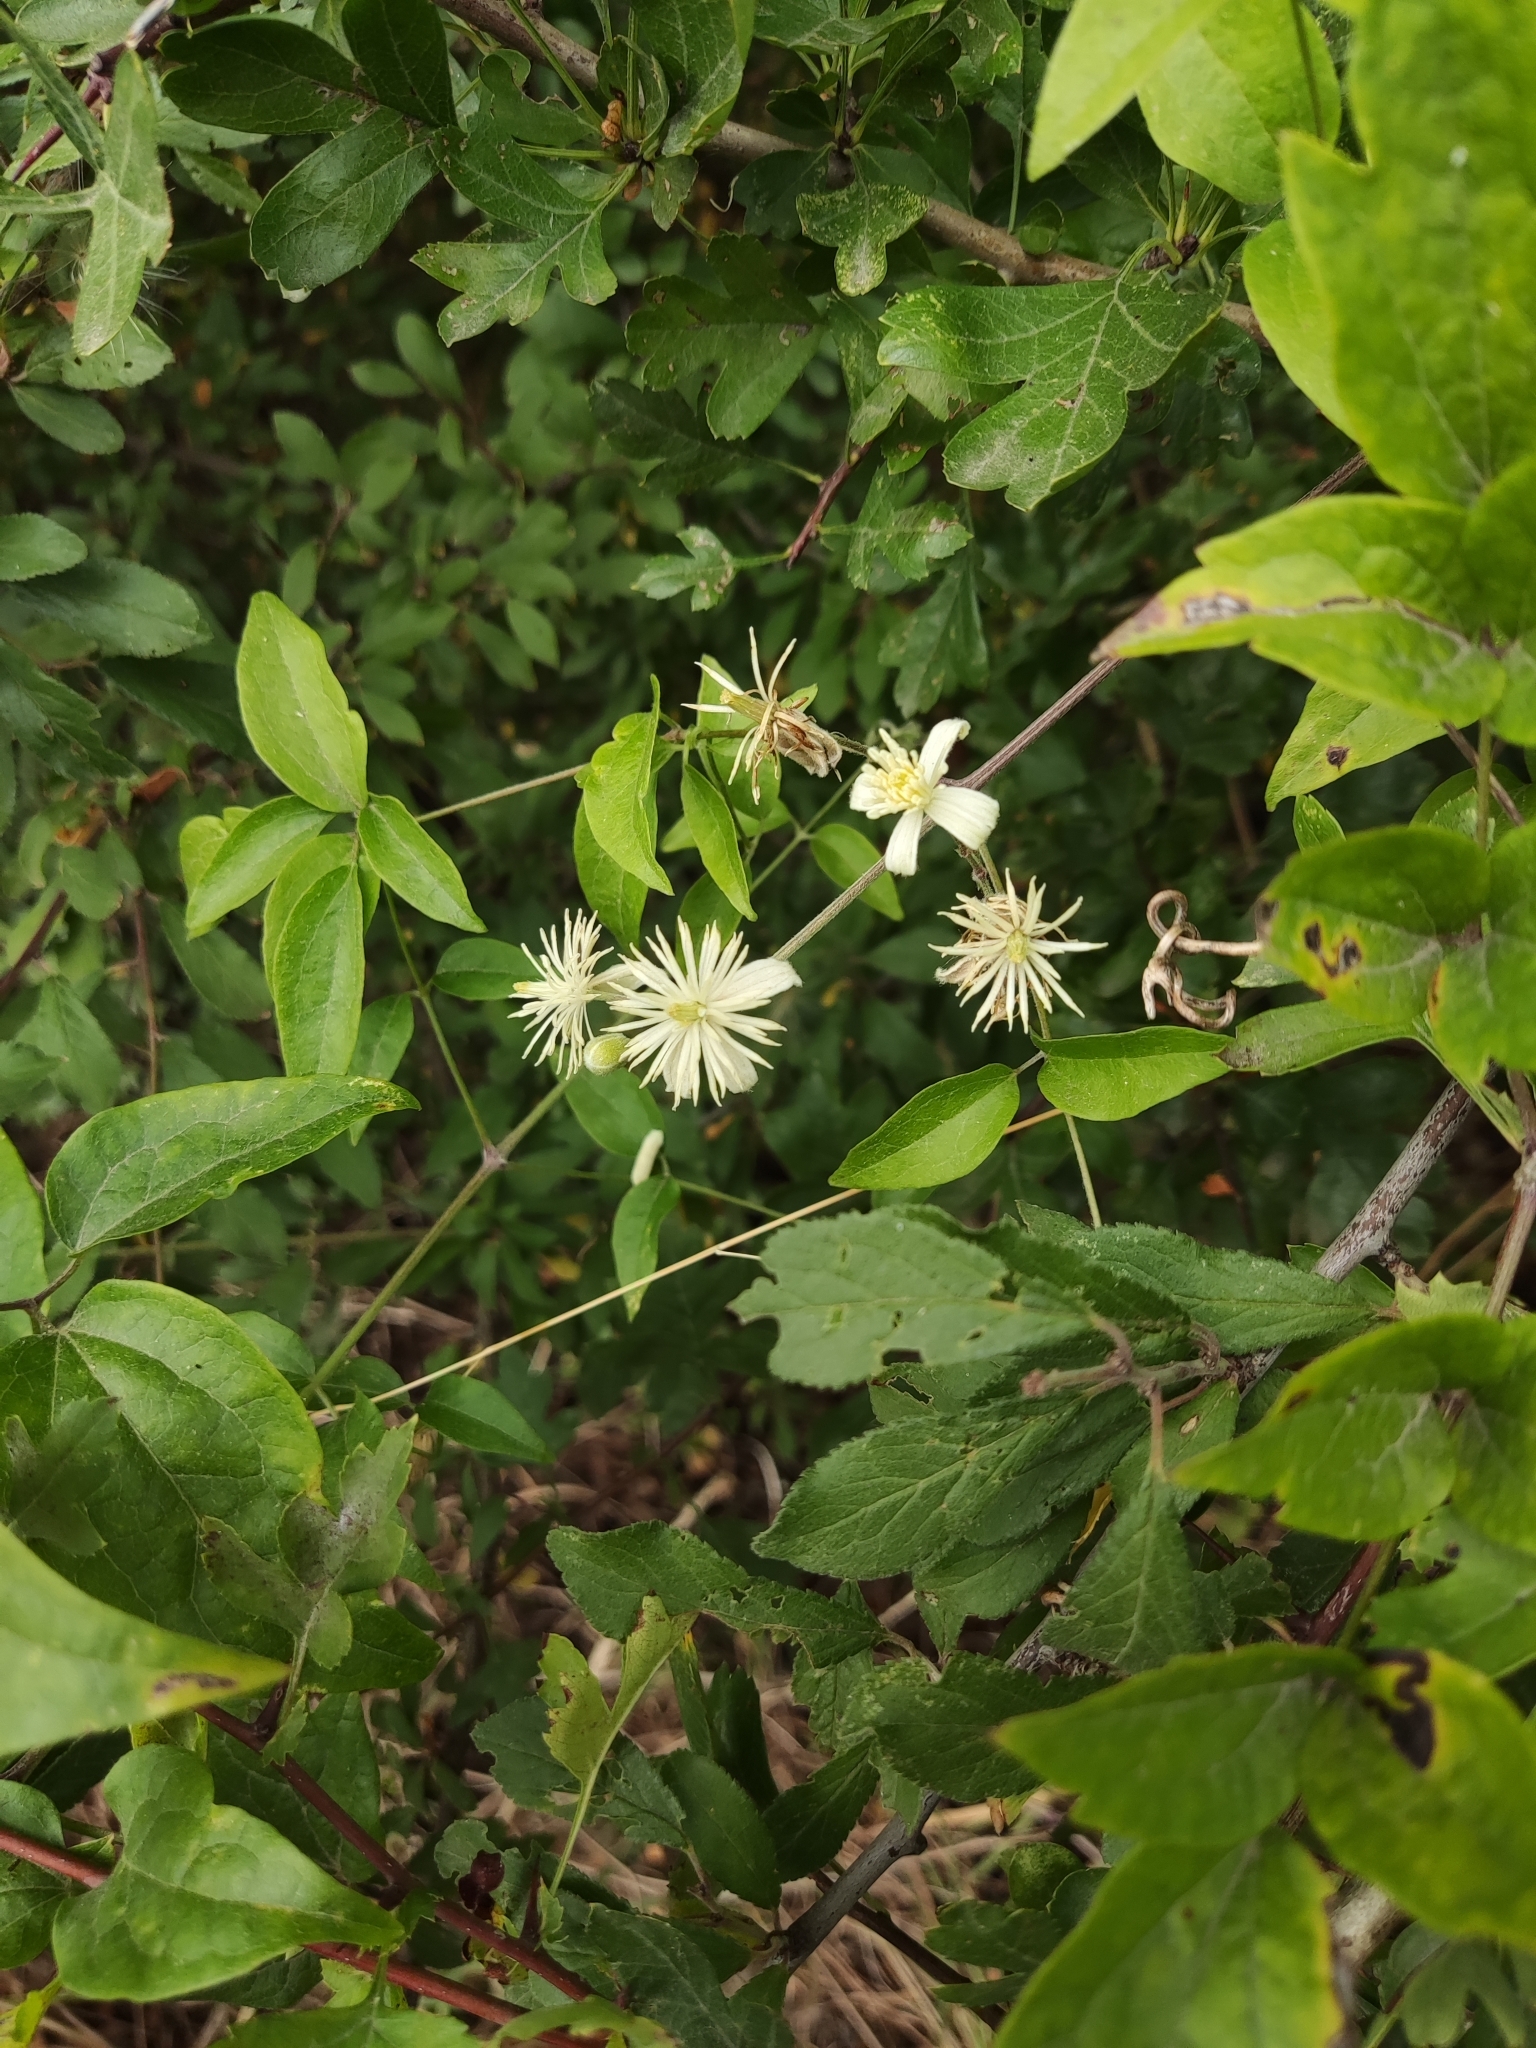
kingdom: Plantae
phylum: Tracheophyta
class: Magnoliopsida
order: Ranunculales
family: Ranunculaceae
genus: Clematis
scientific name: Clematis vitalba
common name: Evergreen clematis
